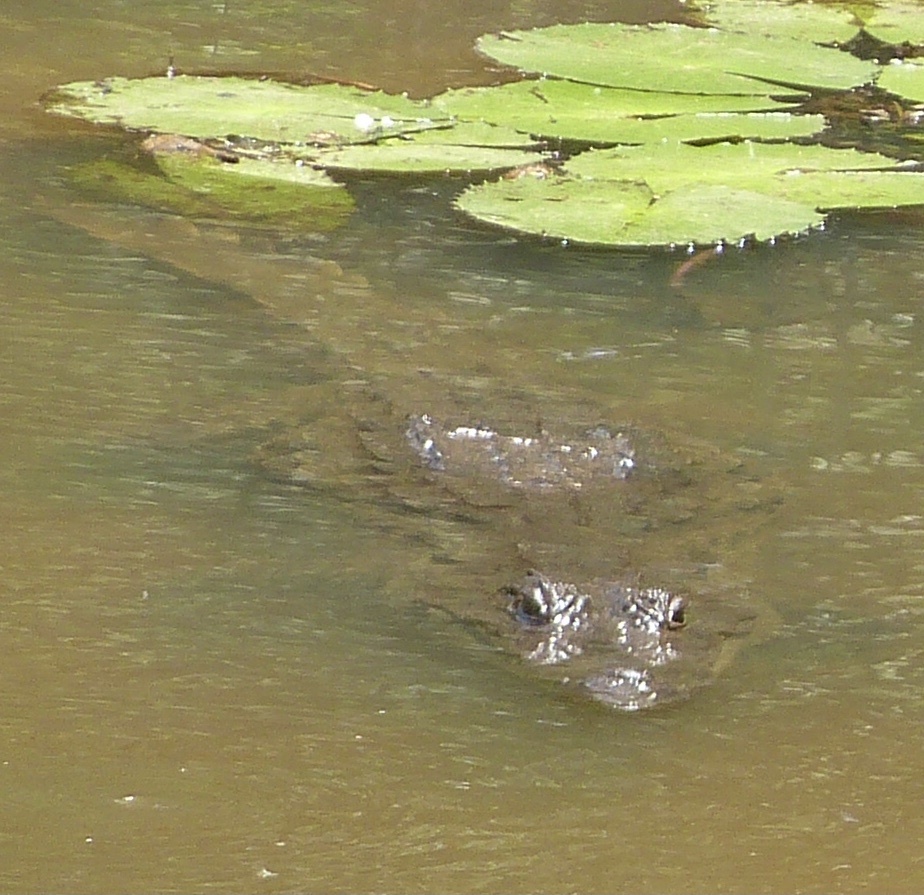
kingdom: Animalia
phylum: Chordata
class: Crocodylia
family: Crocodylidae
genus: Crocodylus
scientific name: Crocodylus suchus
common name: West african crocodile
